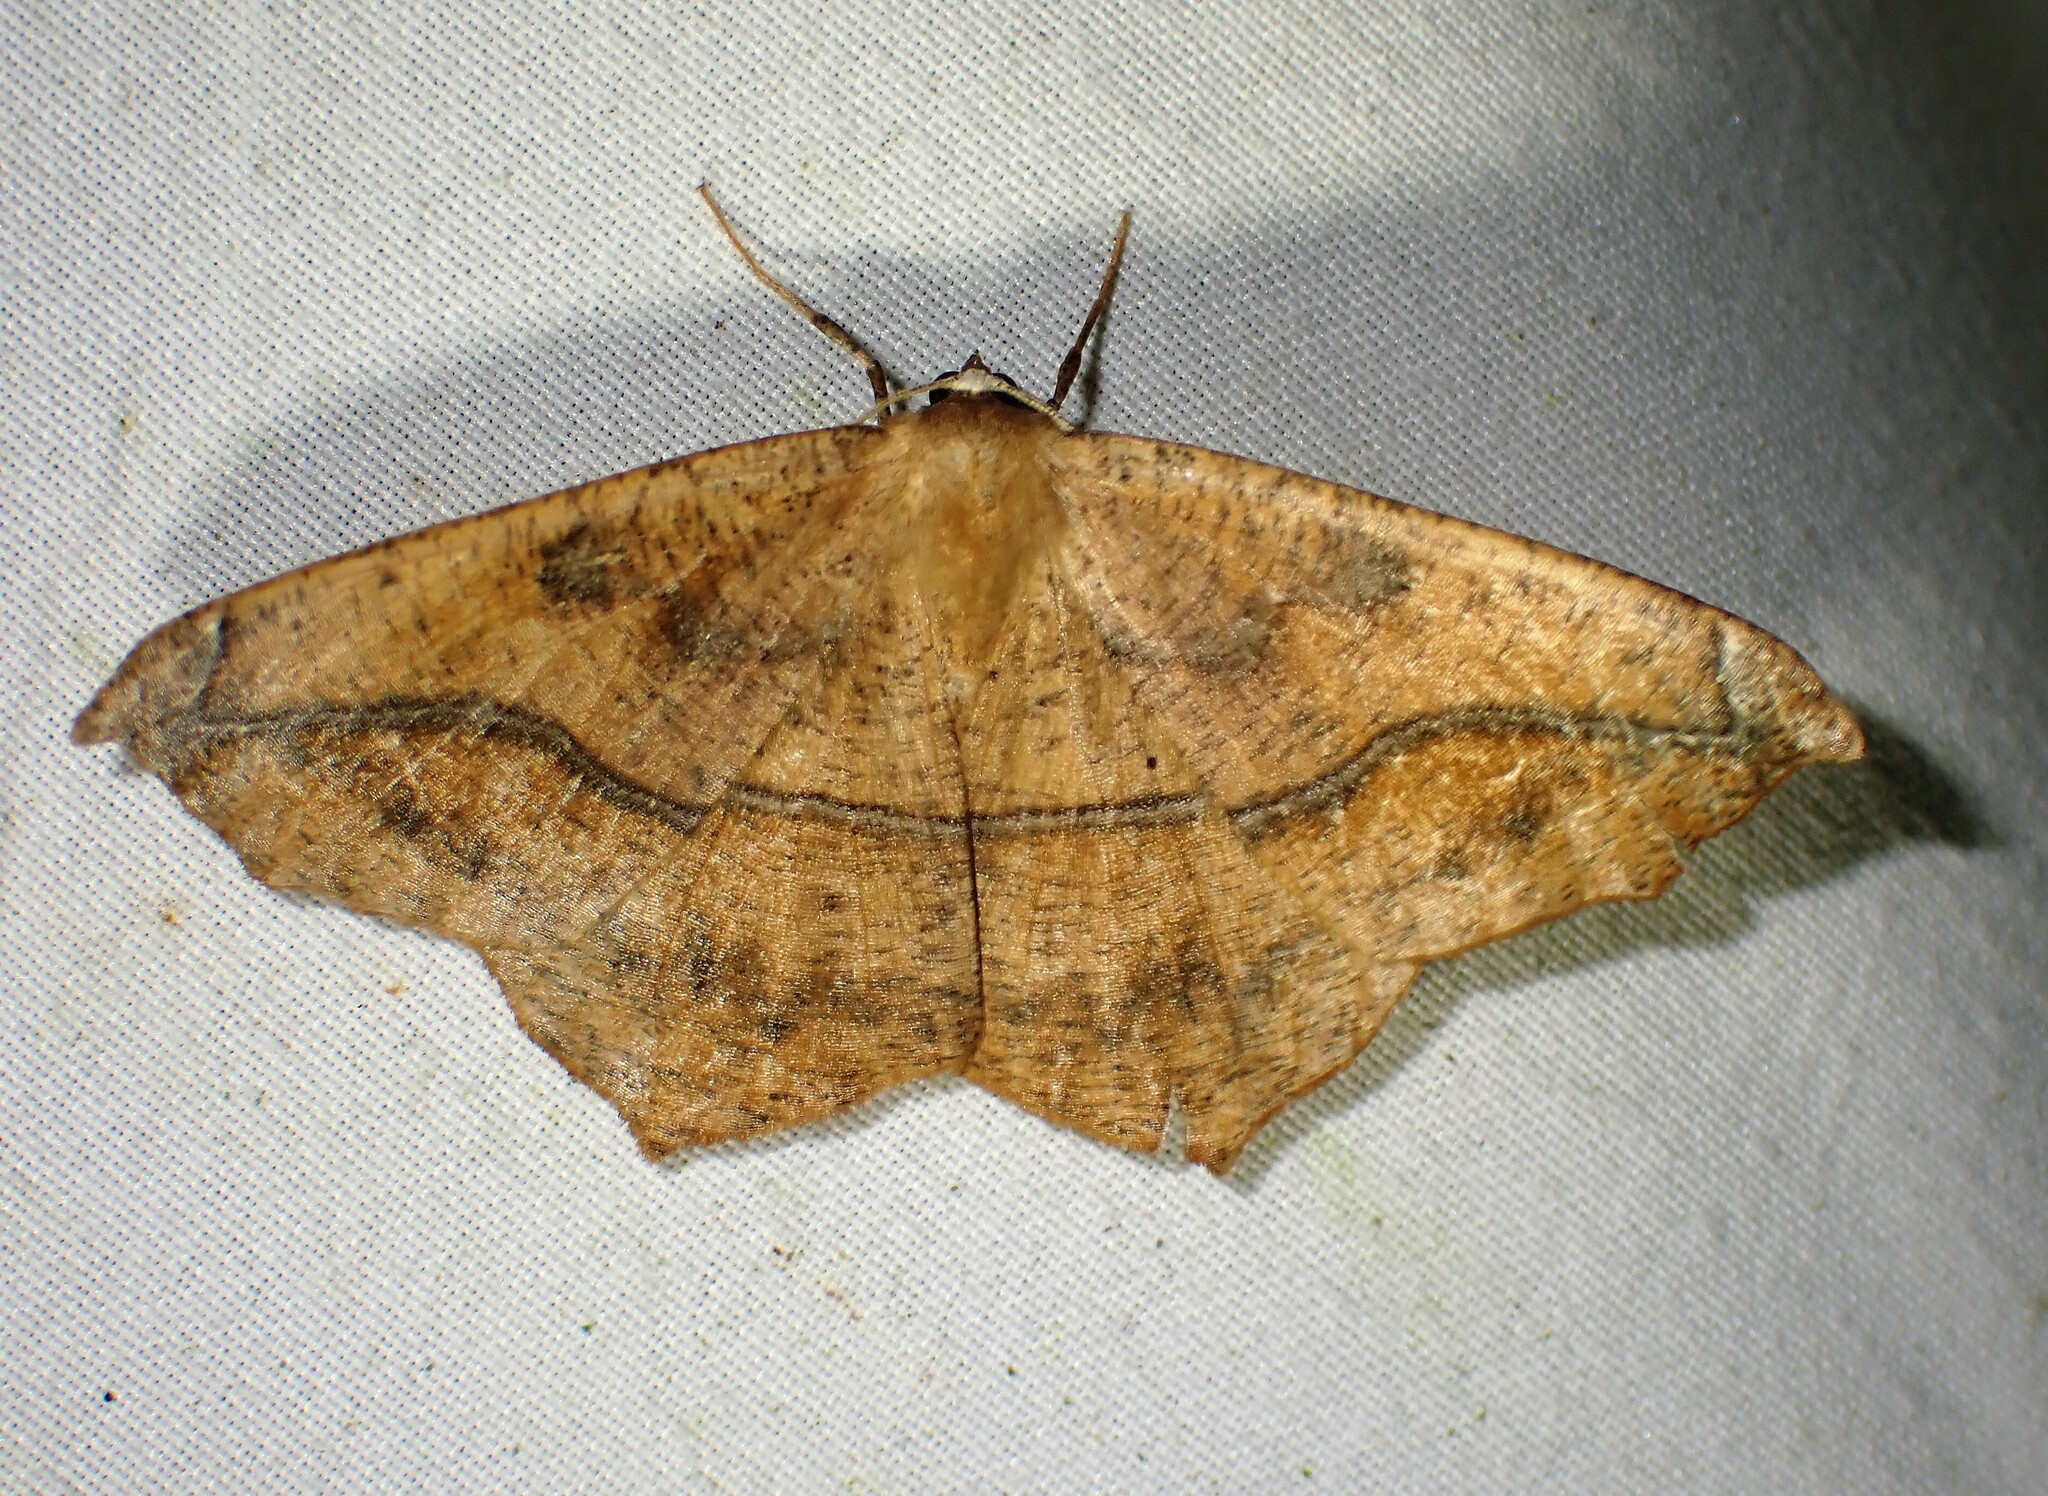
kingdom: Animalia
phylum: Arthropoda
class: Insecta
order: Lepidoptera
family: Geometridae
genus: Prochoerodes
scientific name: Prochoerodes lineola
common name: Large maple spanworm
